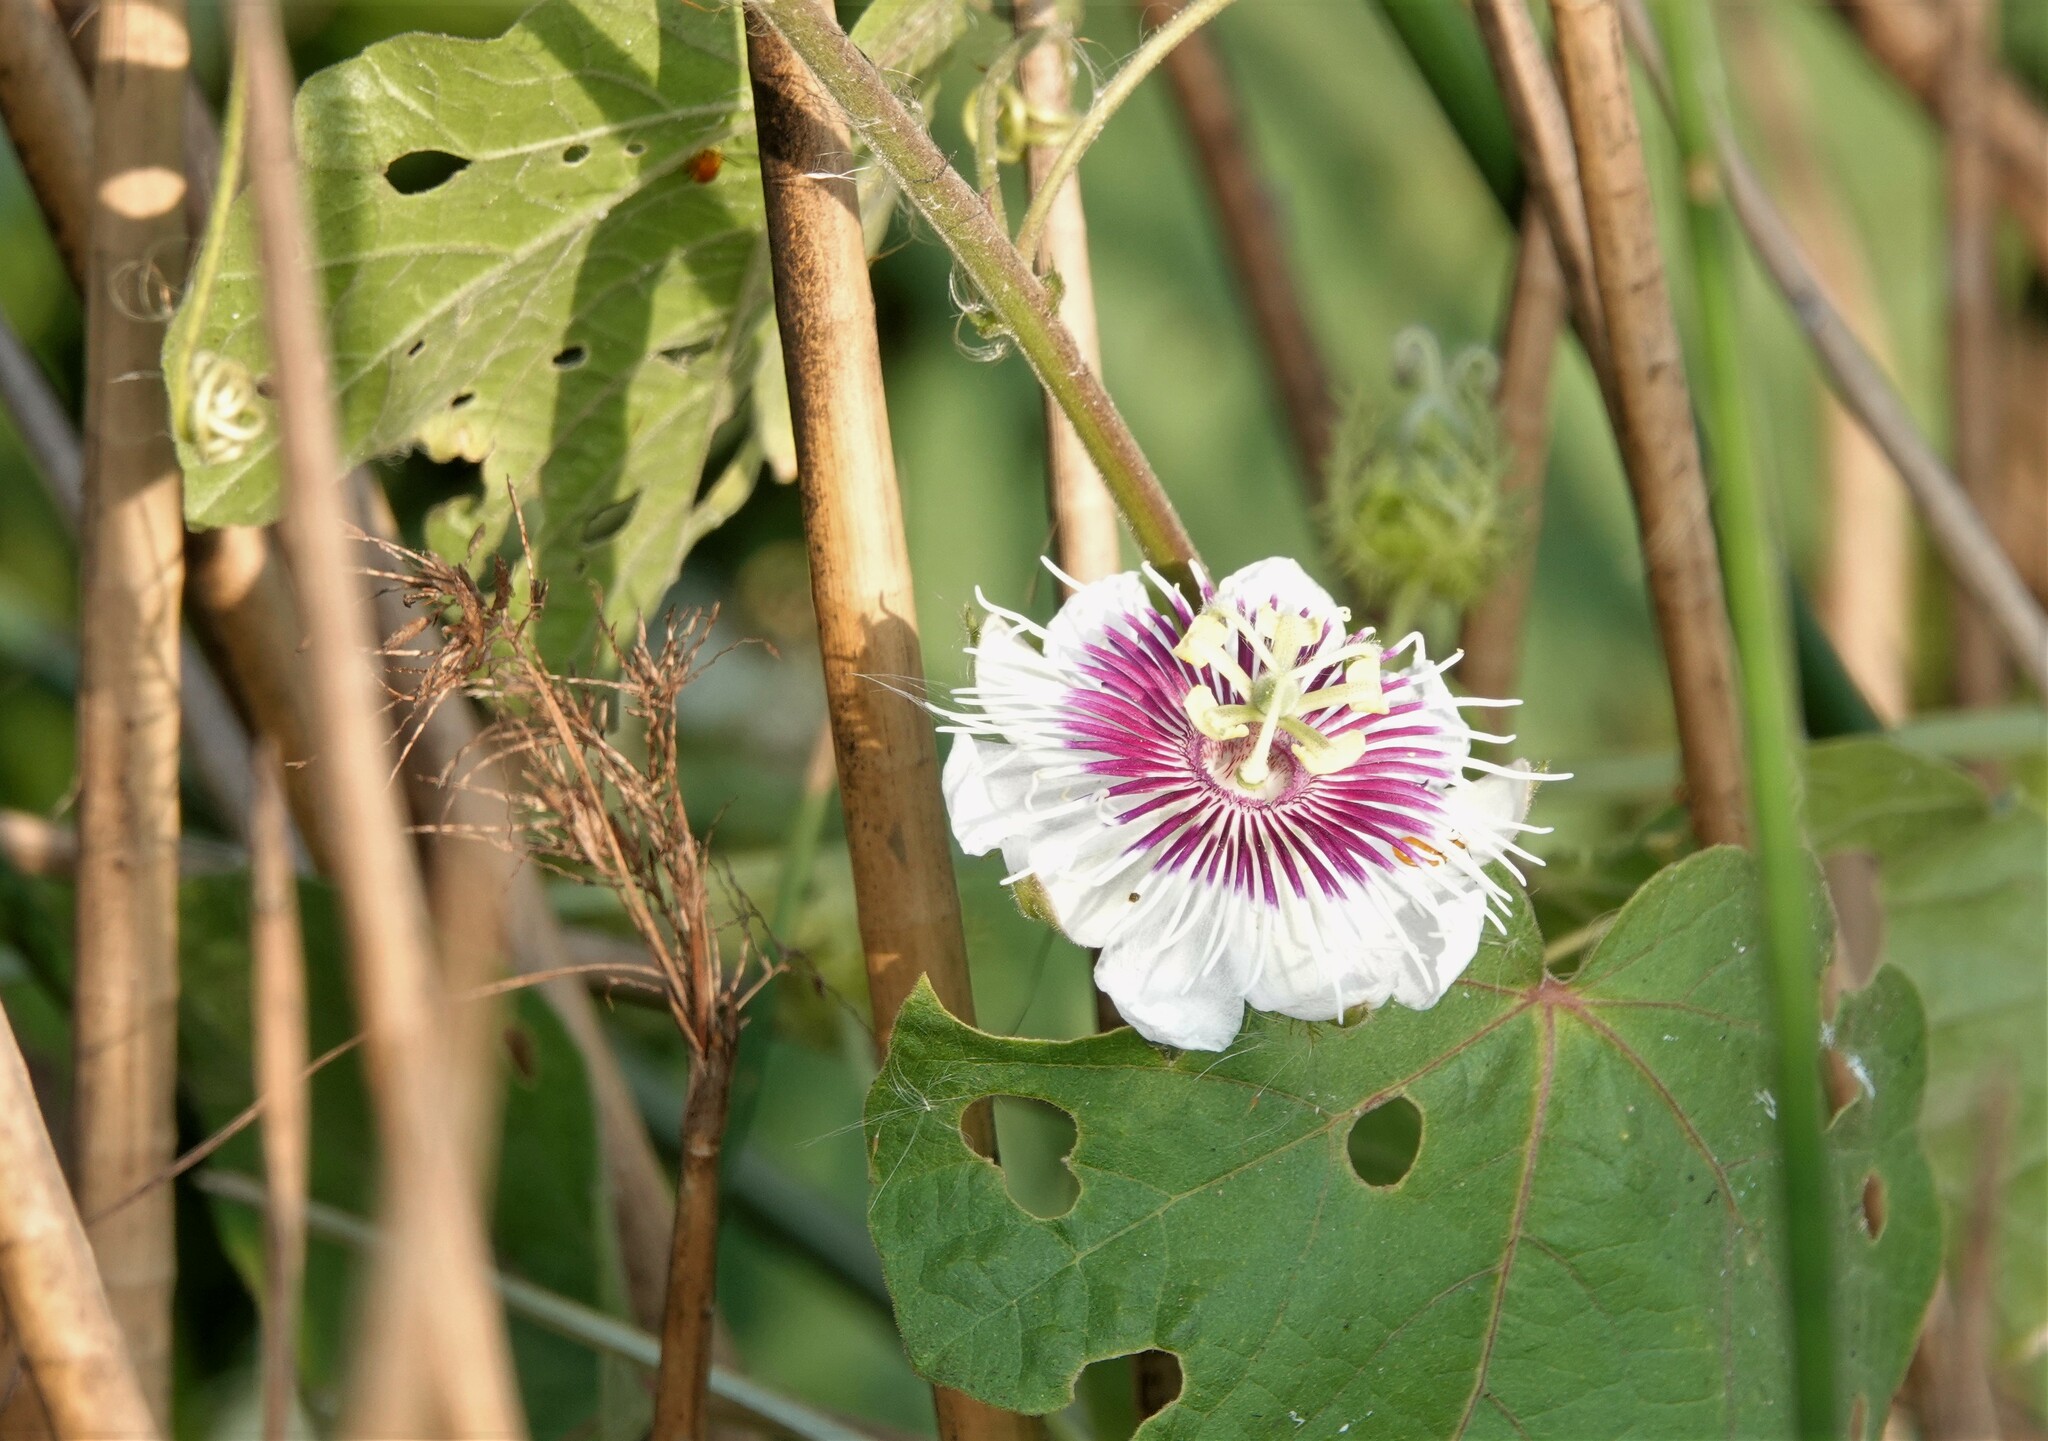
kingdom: Plantae
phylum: Tracheophyta
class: Magnoliopsida
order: Malpighiales
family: Passifloraceae
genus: Passiflora
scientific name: Passiflora vesicaria
